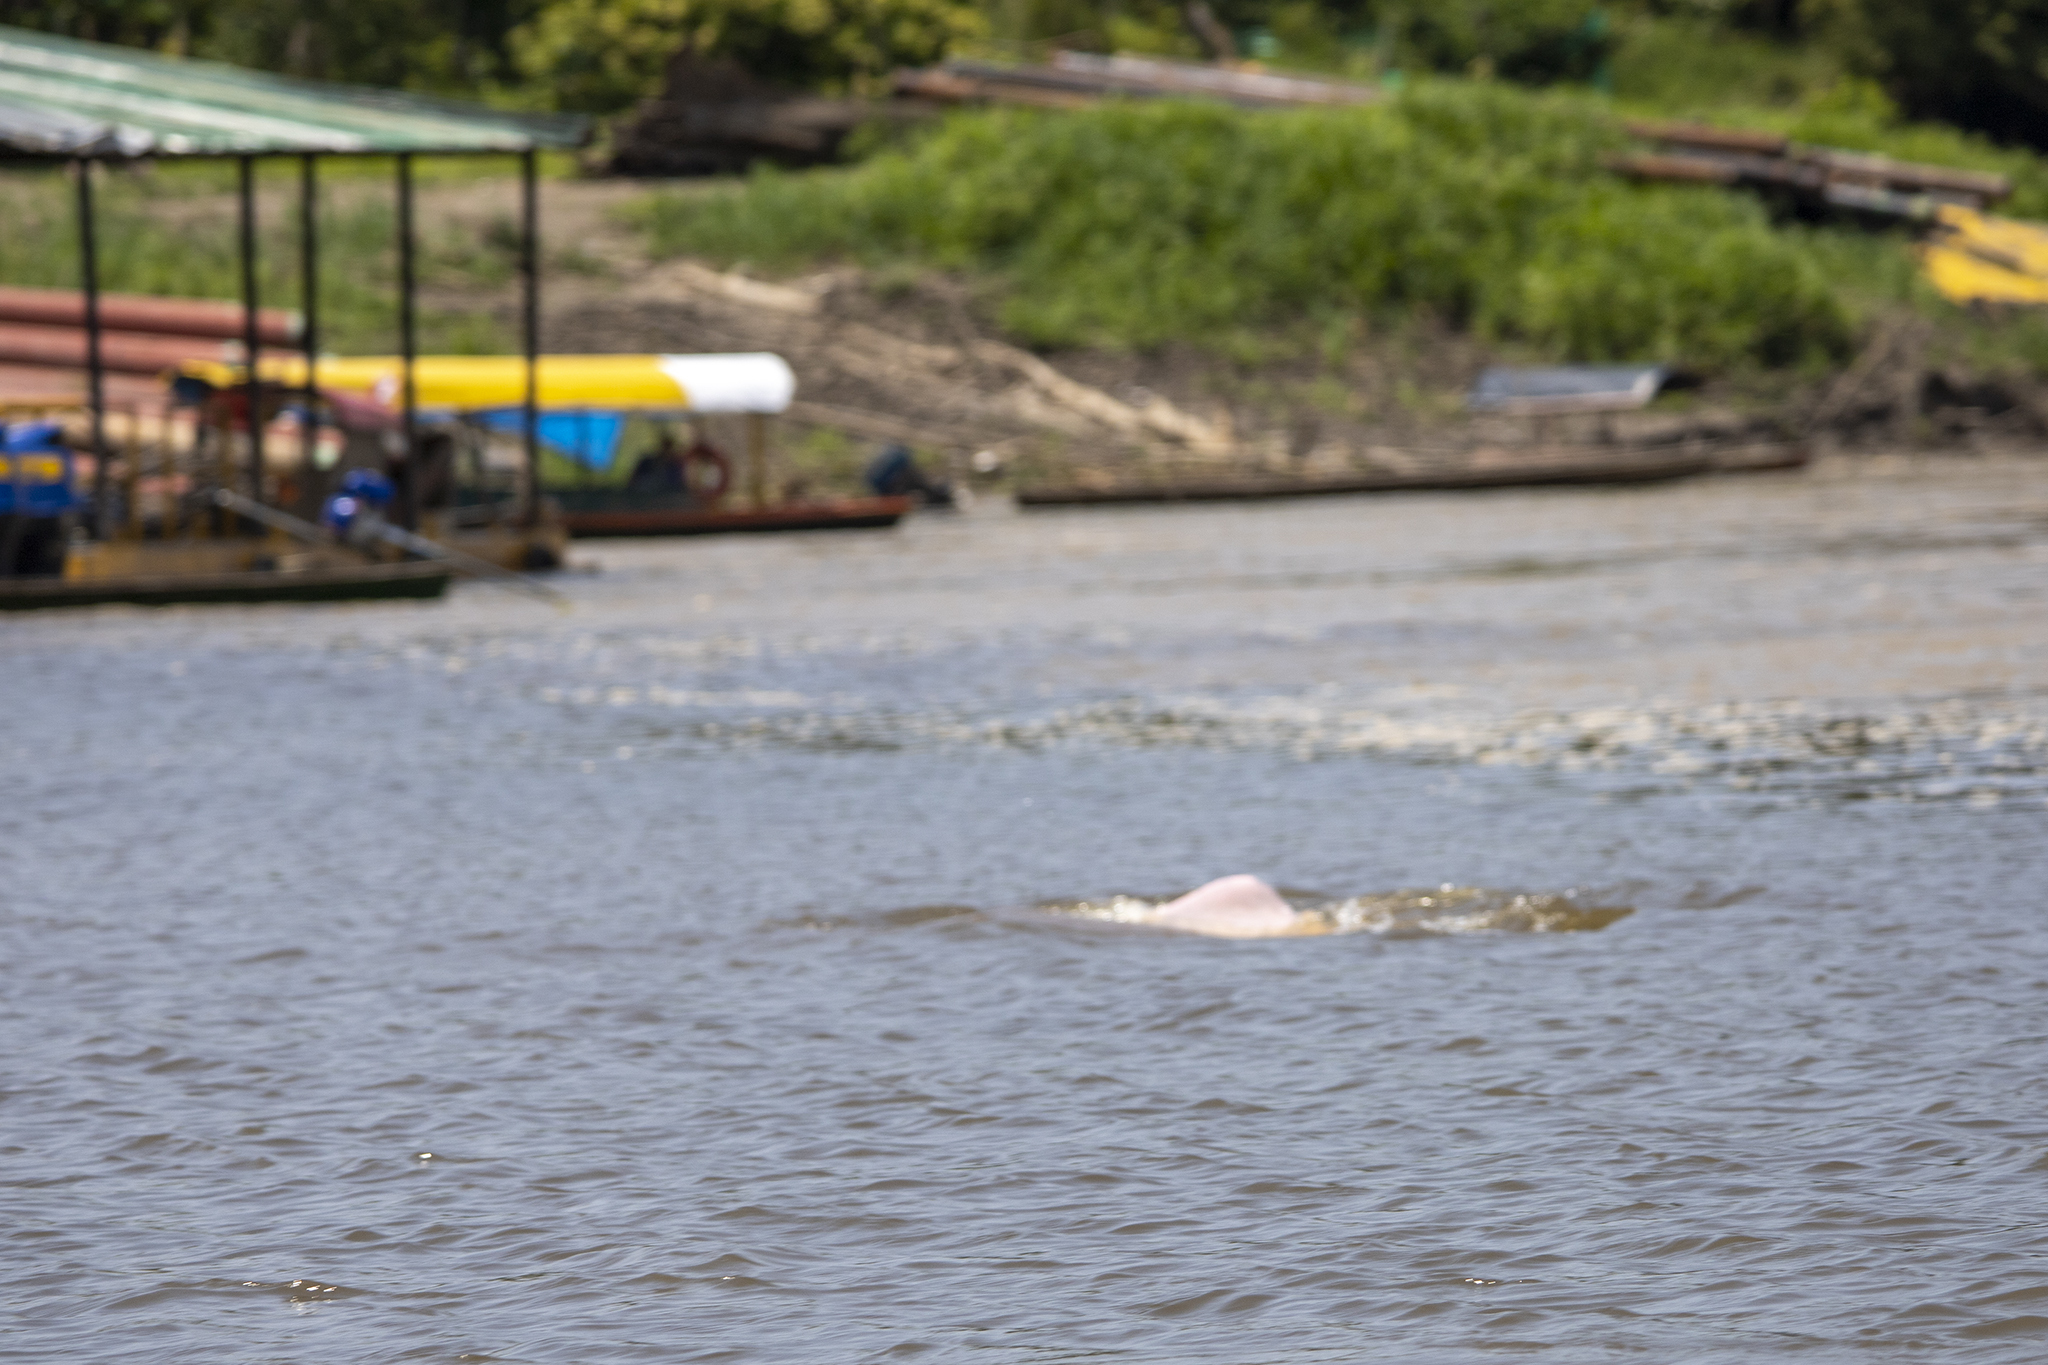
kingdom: Animalia
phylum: Chordata
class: Mammalia
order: Cetacea
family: Iniidae
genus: Inia
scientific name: Inia geoffrensis
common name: Amazon river dolphin
